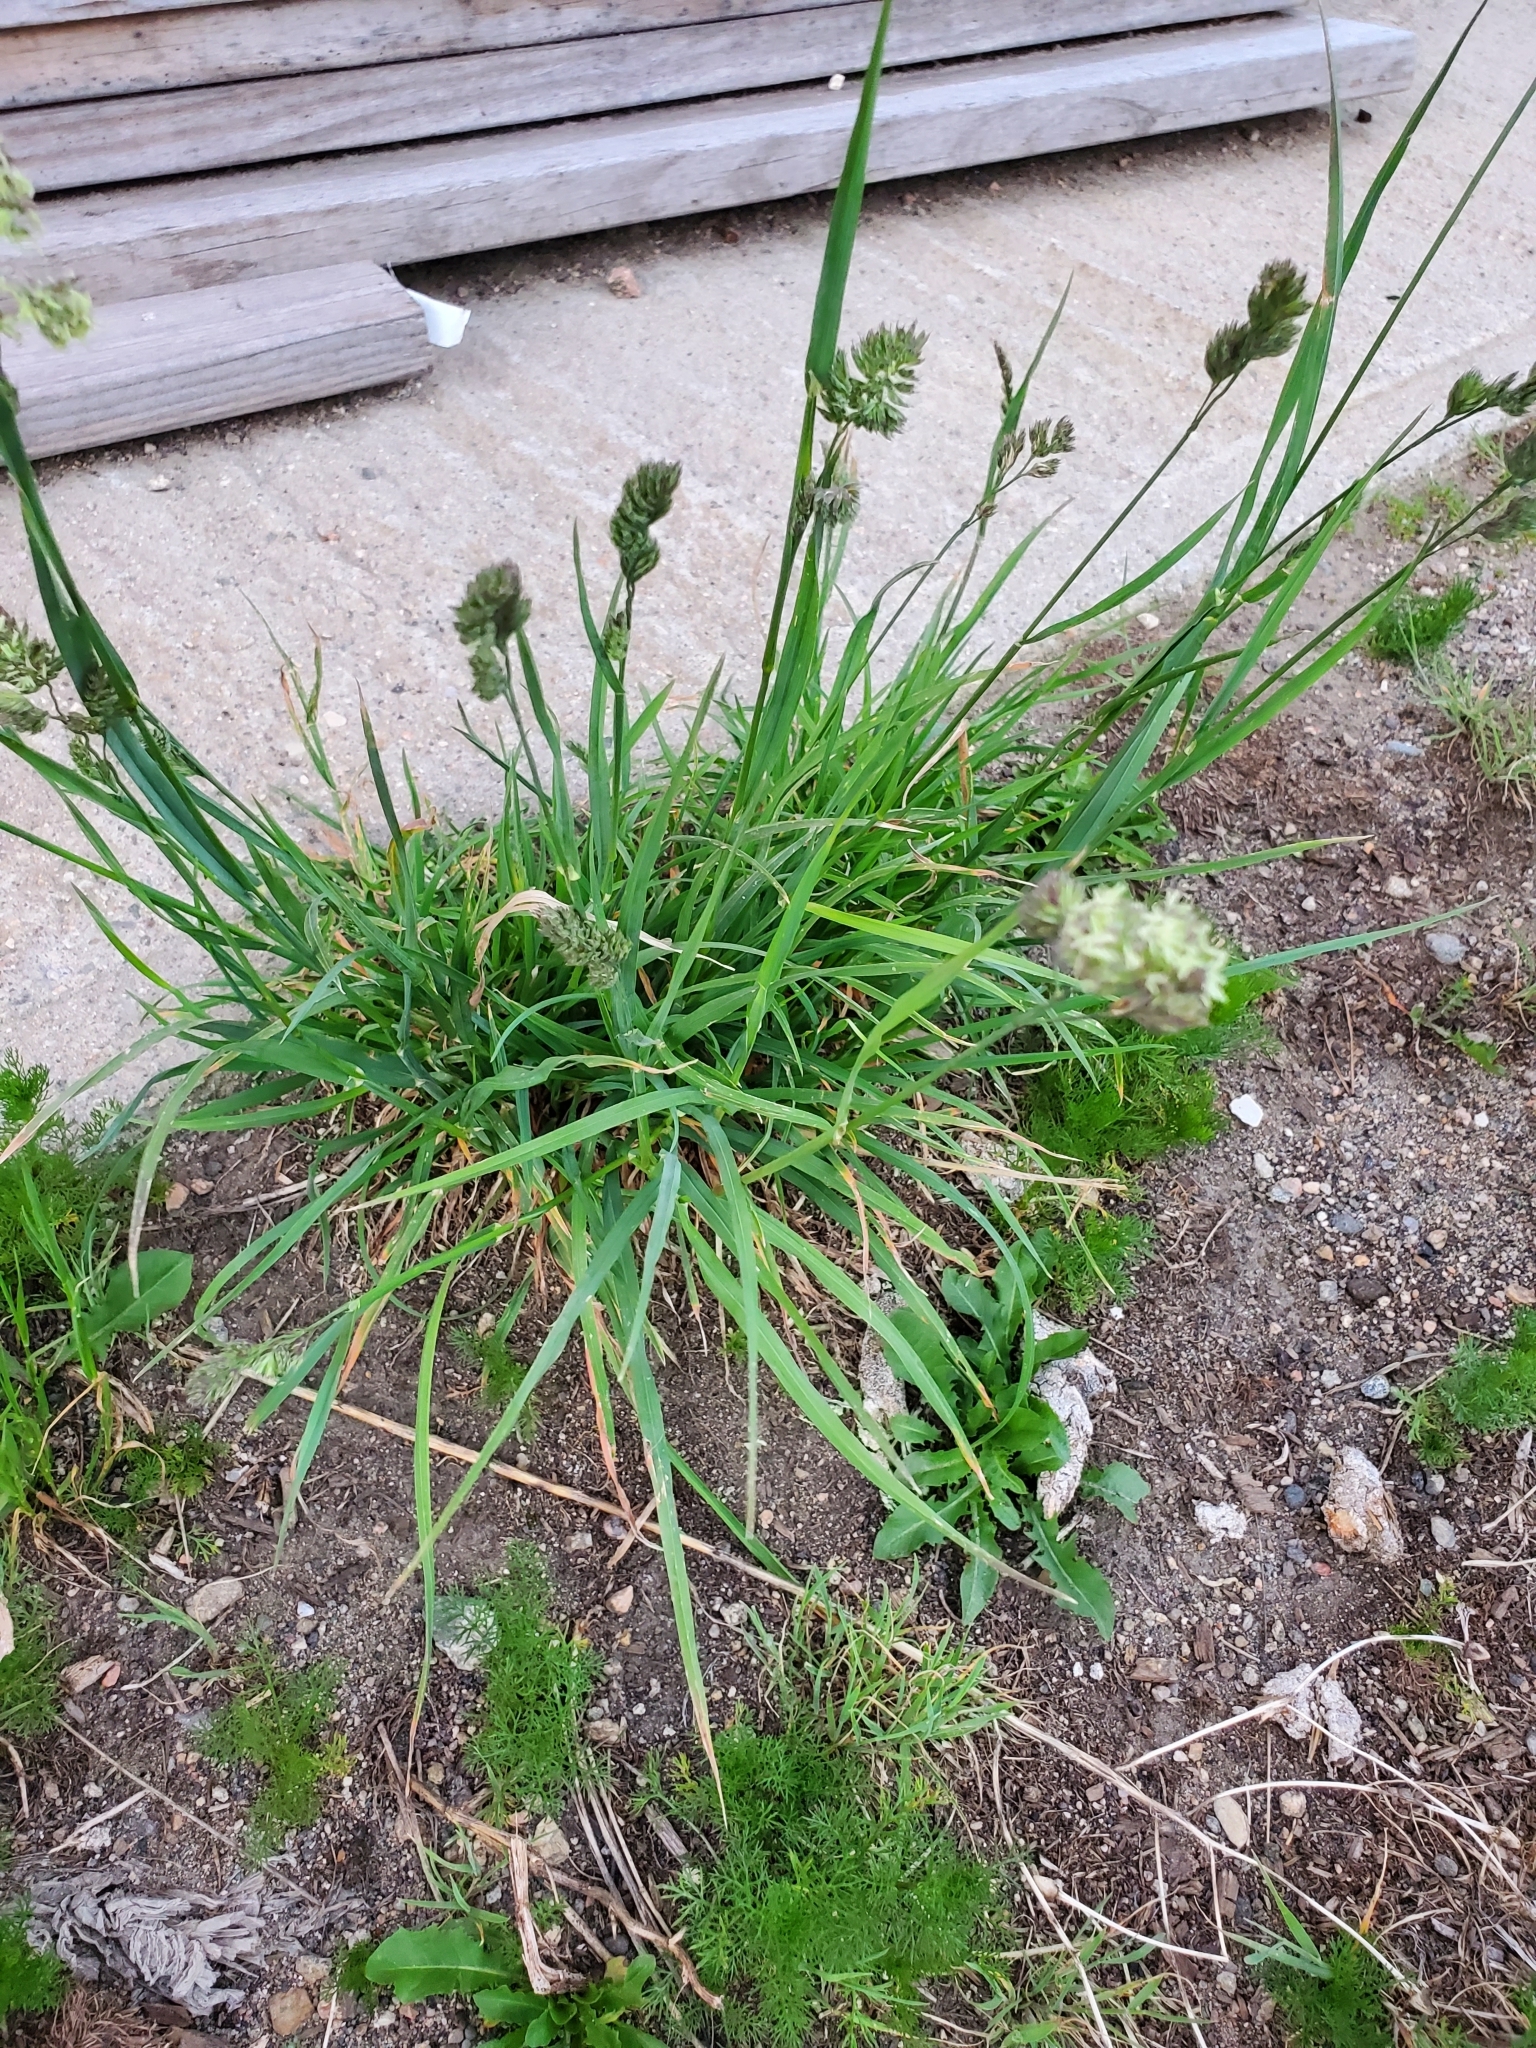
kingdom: Plantae
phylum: Tracheophyta
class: Liliopsida
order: Poales
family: Poaceae
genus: Dactylis
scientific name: Dactylis glomerata
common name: Orchardgrass
